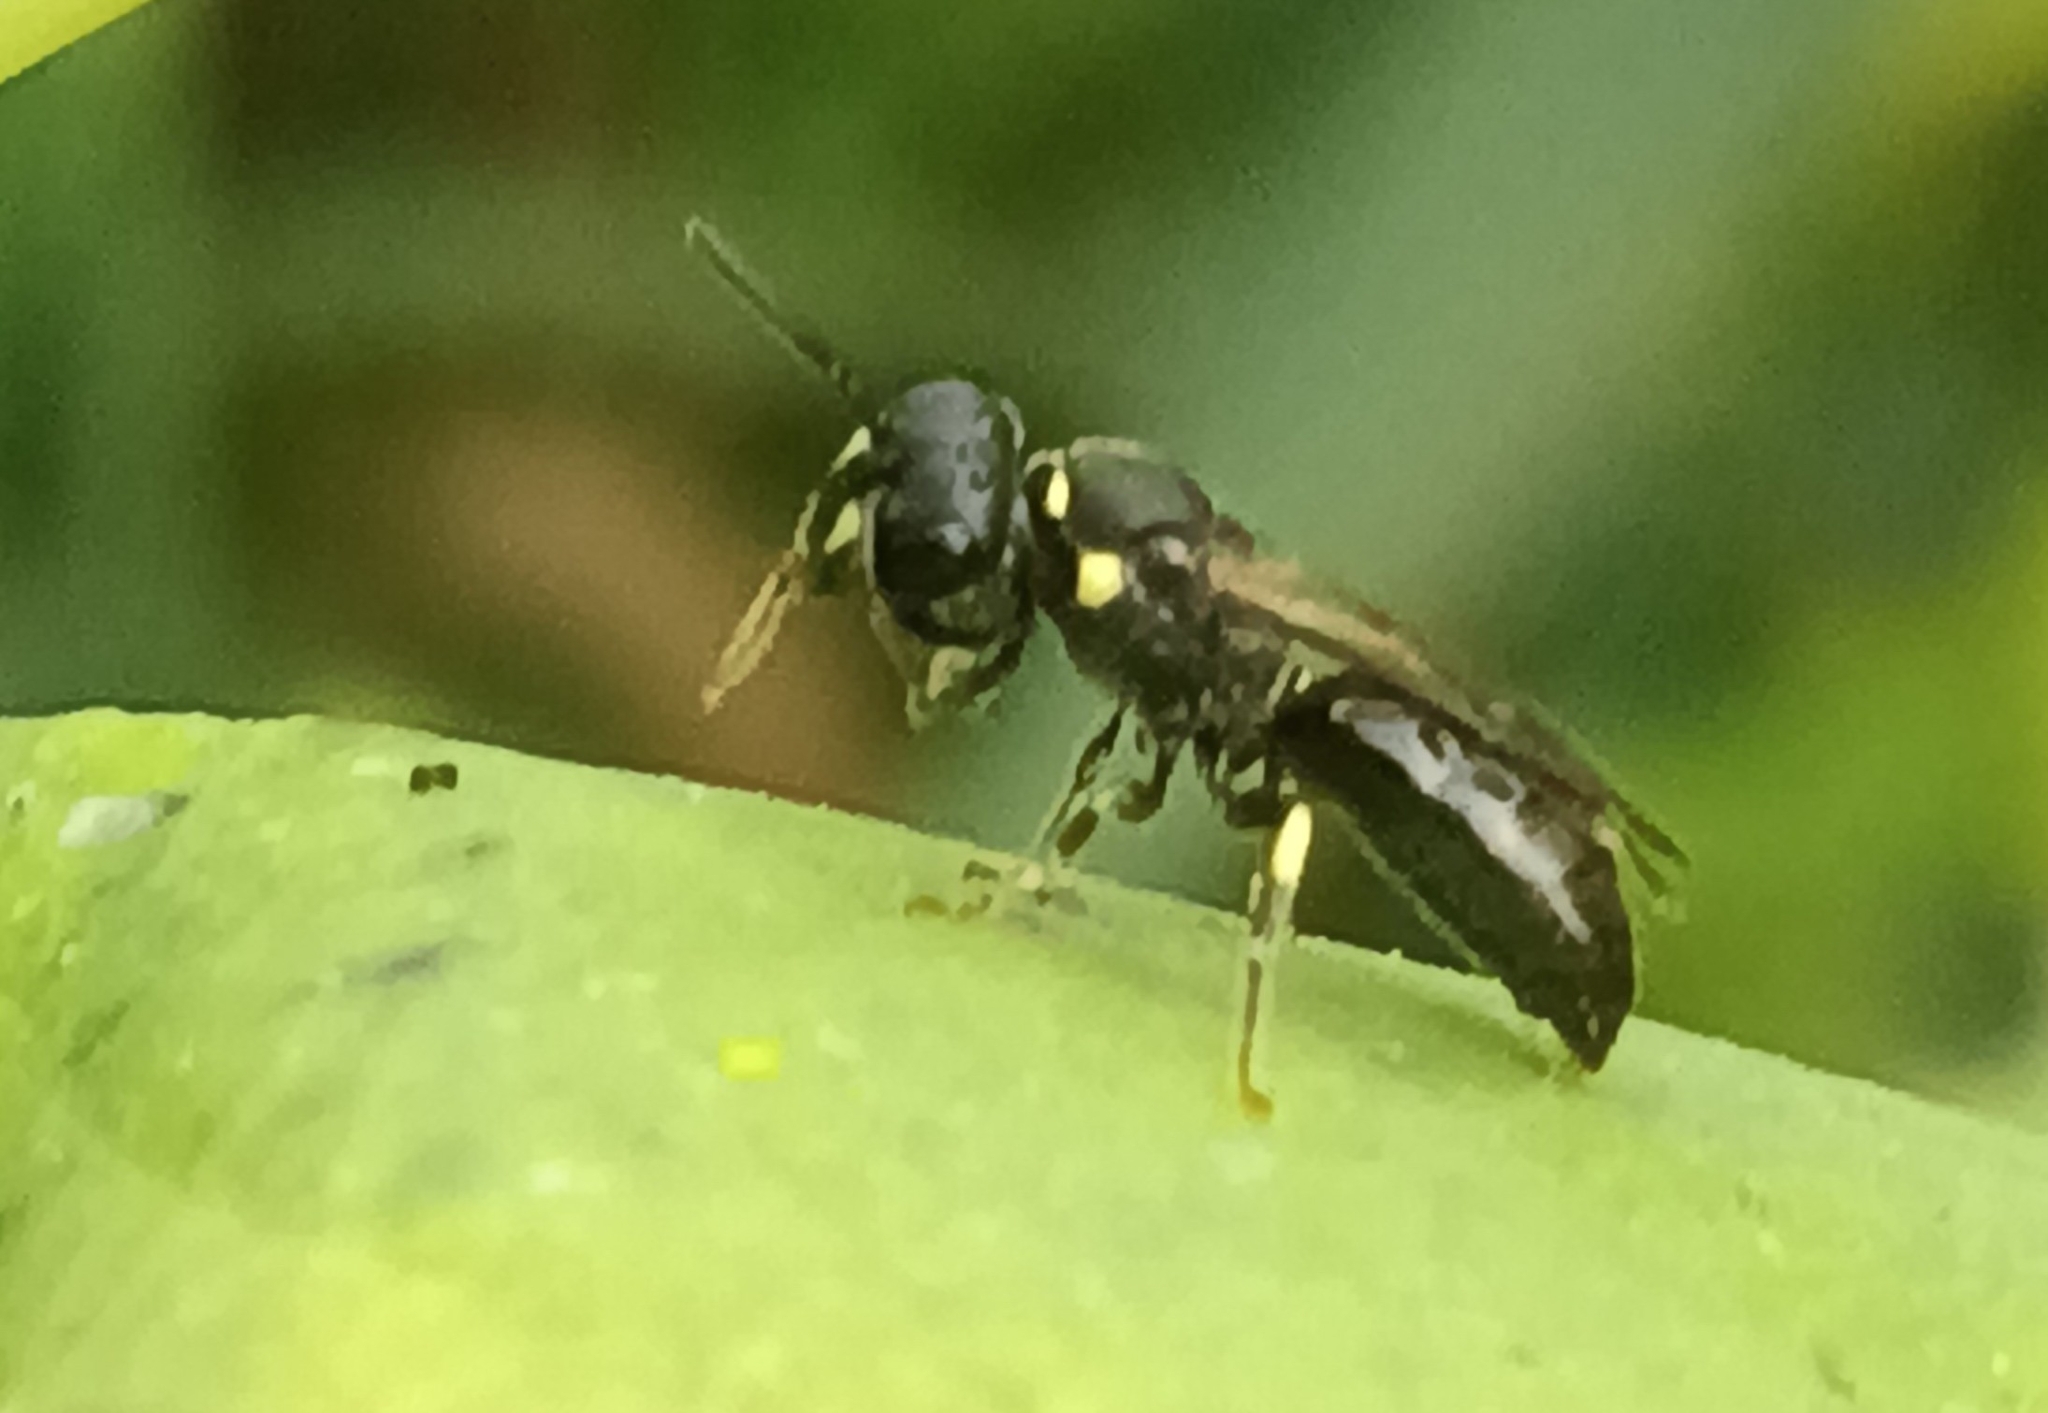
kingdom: Animalia
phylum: Arthropoda
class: Insecta
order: Hymenoptera
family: Colletidae
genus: Hylaeus
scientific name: Hylaeus modestus
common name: Yellow-faced bee
